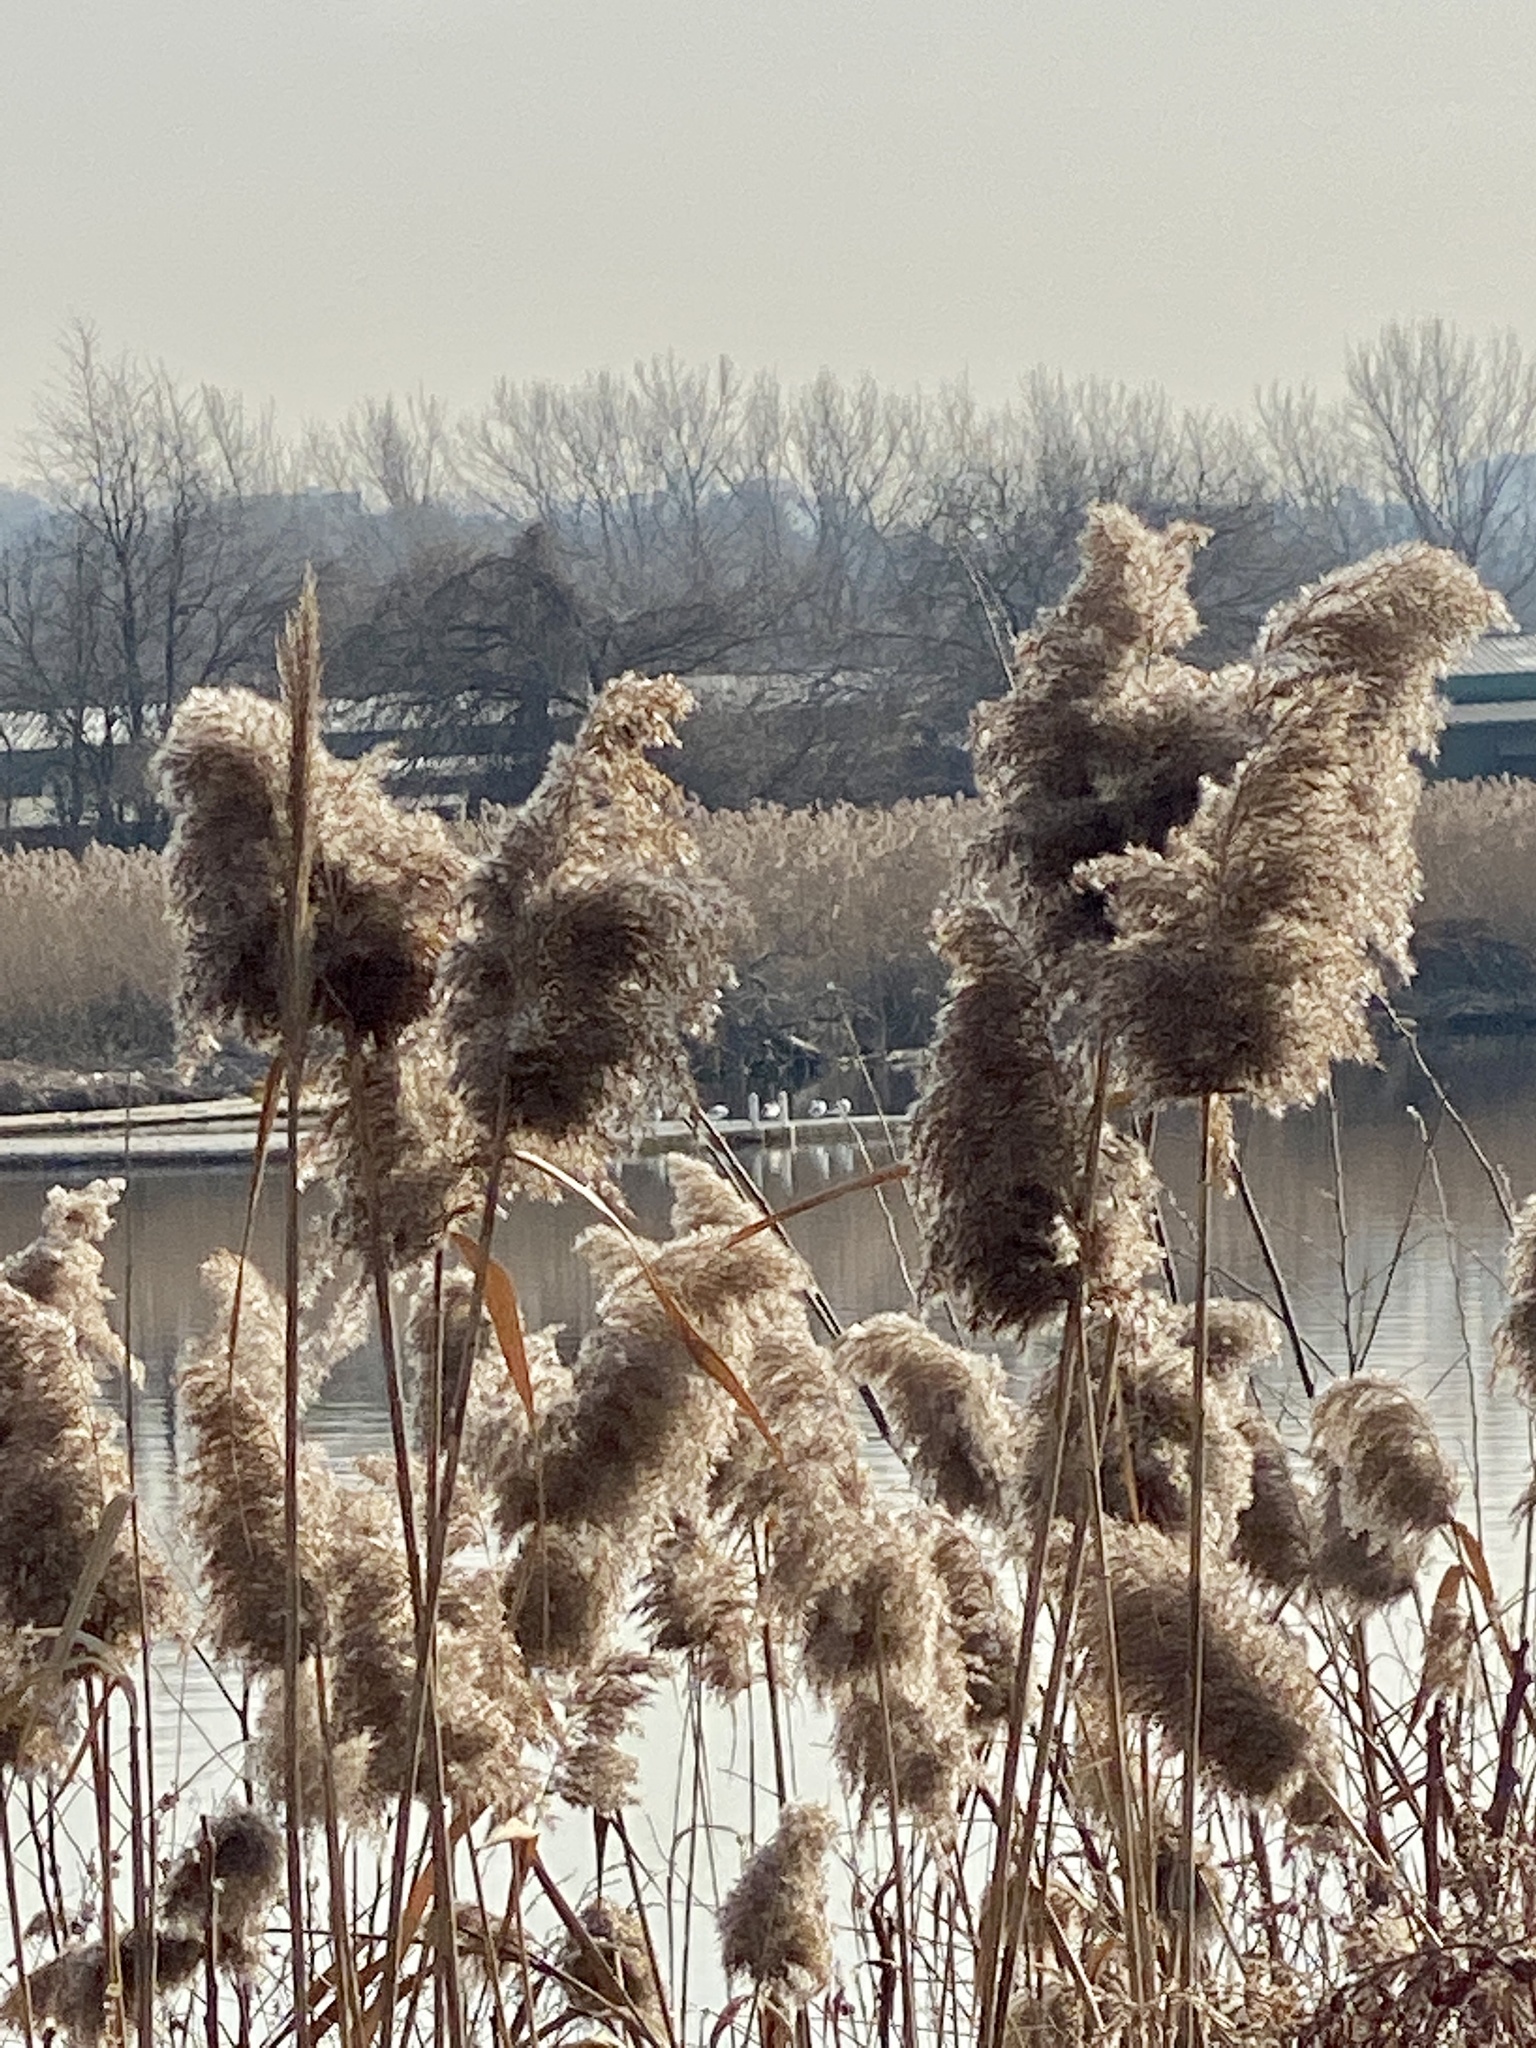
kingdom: Plantae
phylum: Tracheophyta
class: Liliopsida
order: Poales
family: Poaceae
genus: Phragmites
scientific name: Phragmites australis
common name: Common reed
